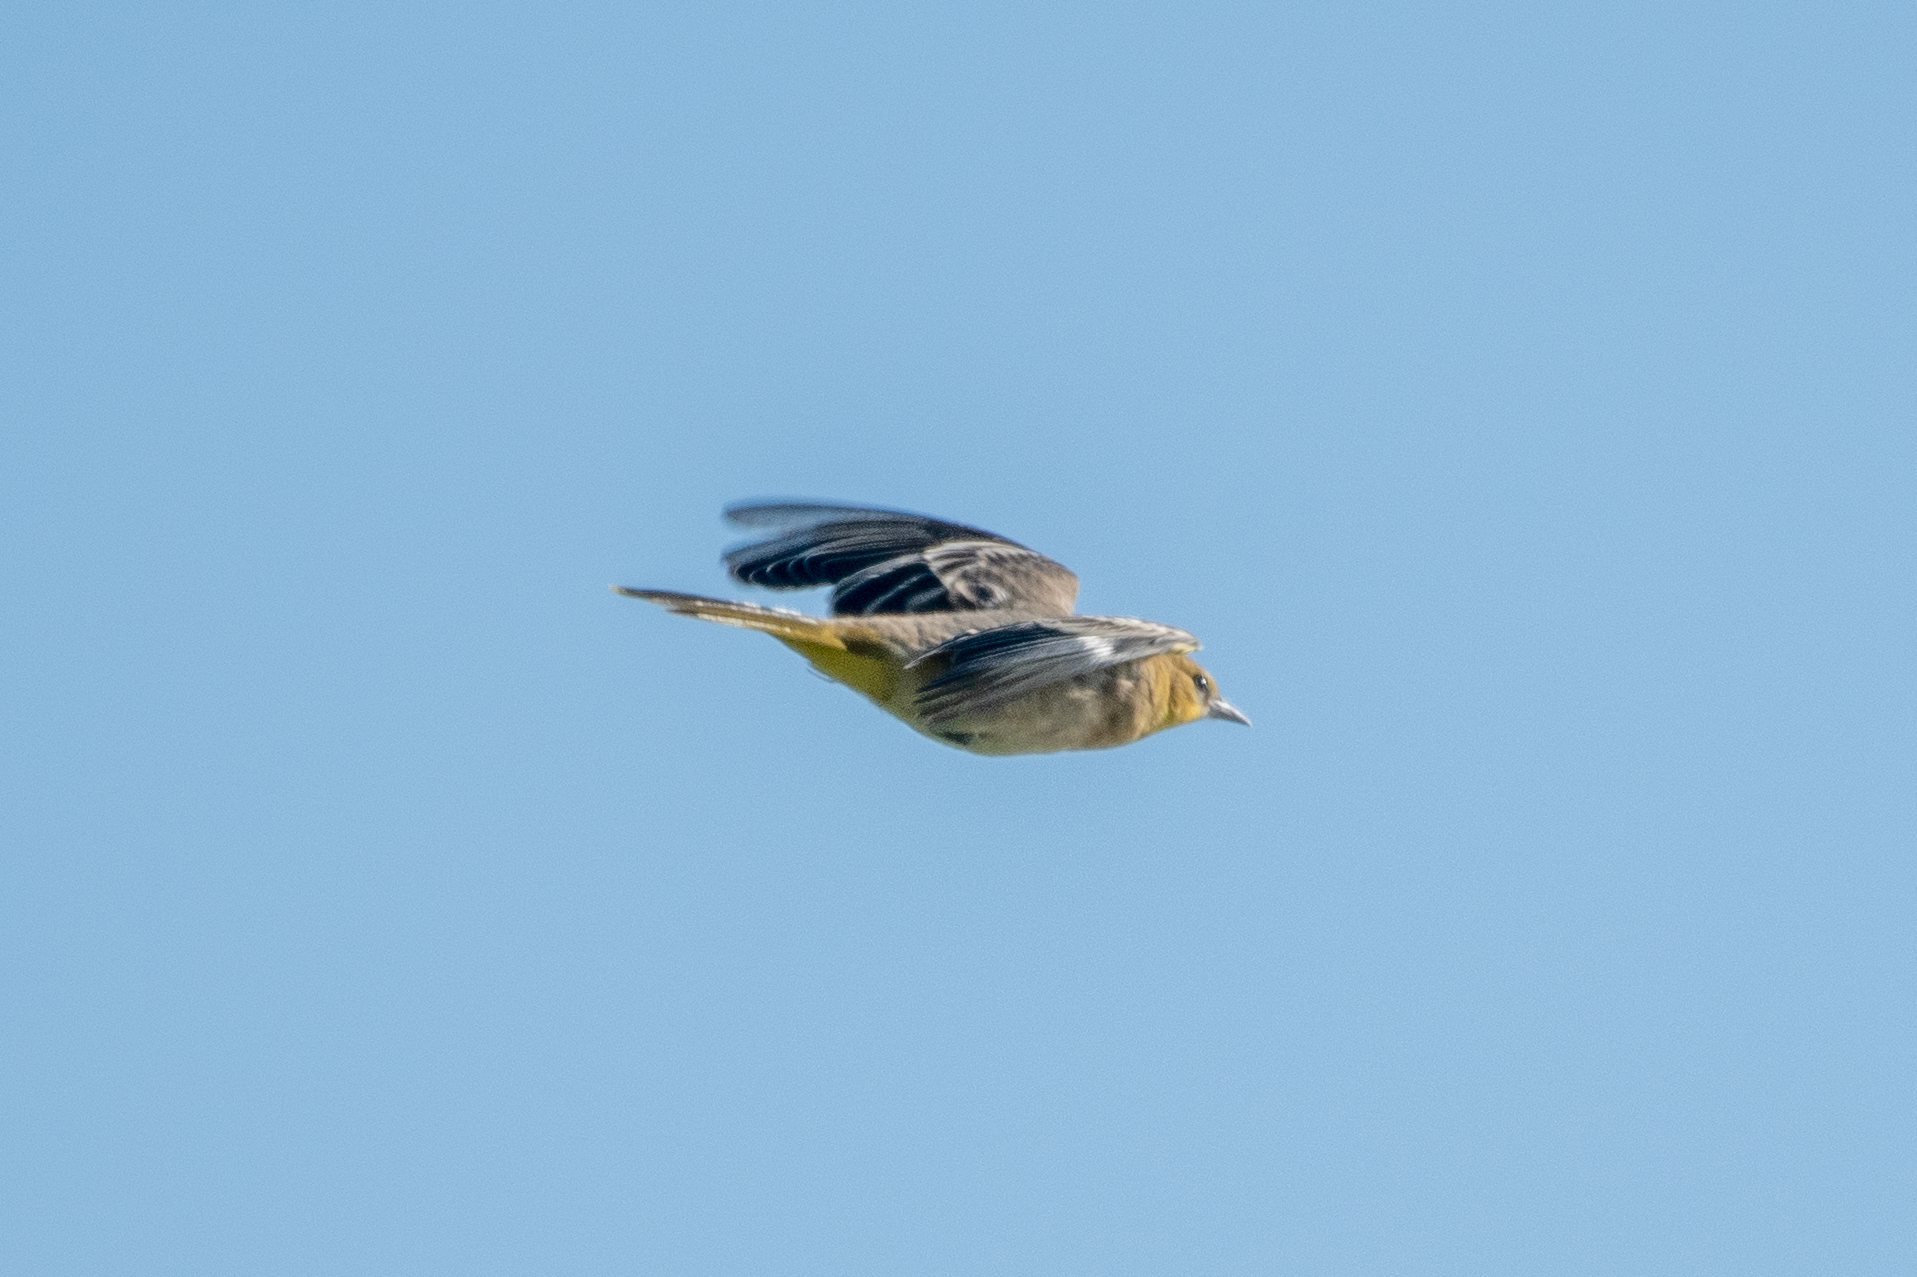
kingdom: Animalia
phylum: Chordata
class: Aves
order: Passeriformes
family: Icteridae
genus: Icterus
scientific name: Icterus bullockii
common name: Bullock's oriole
